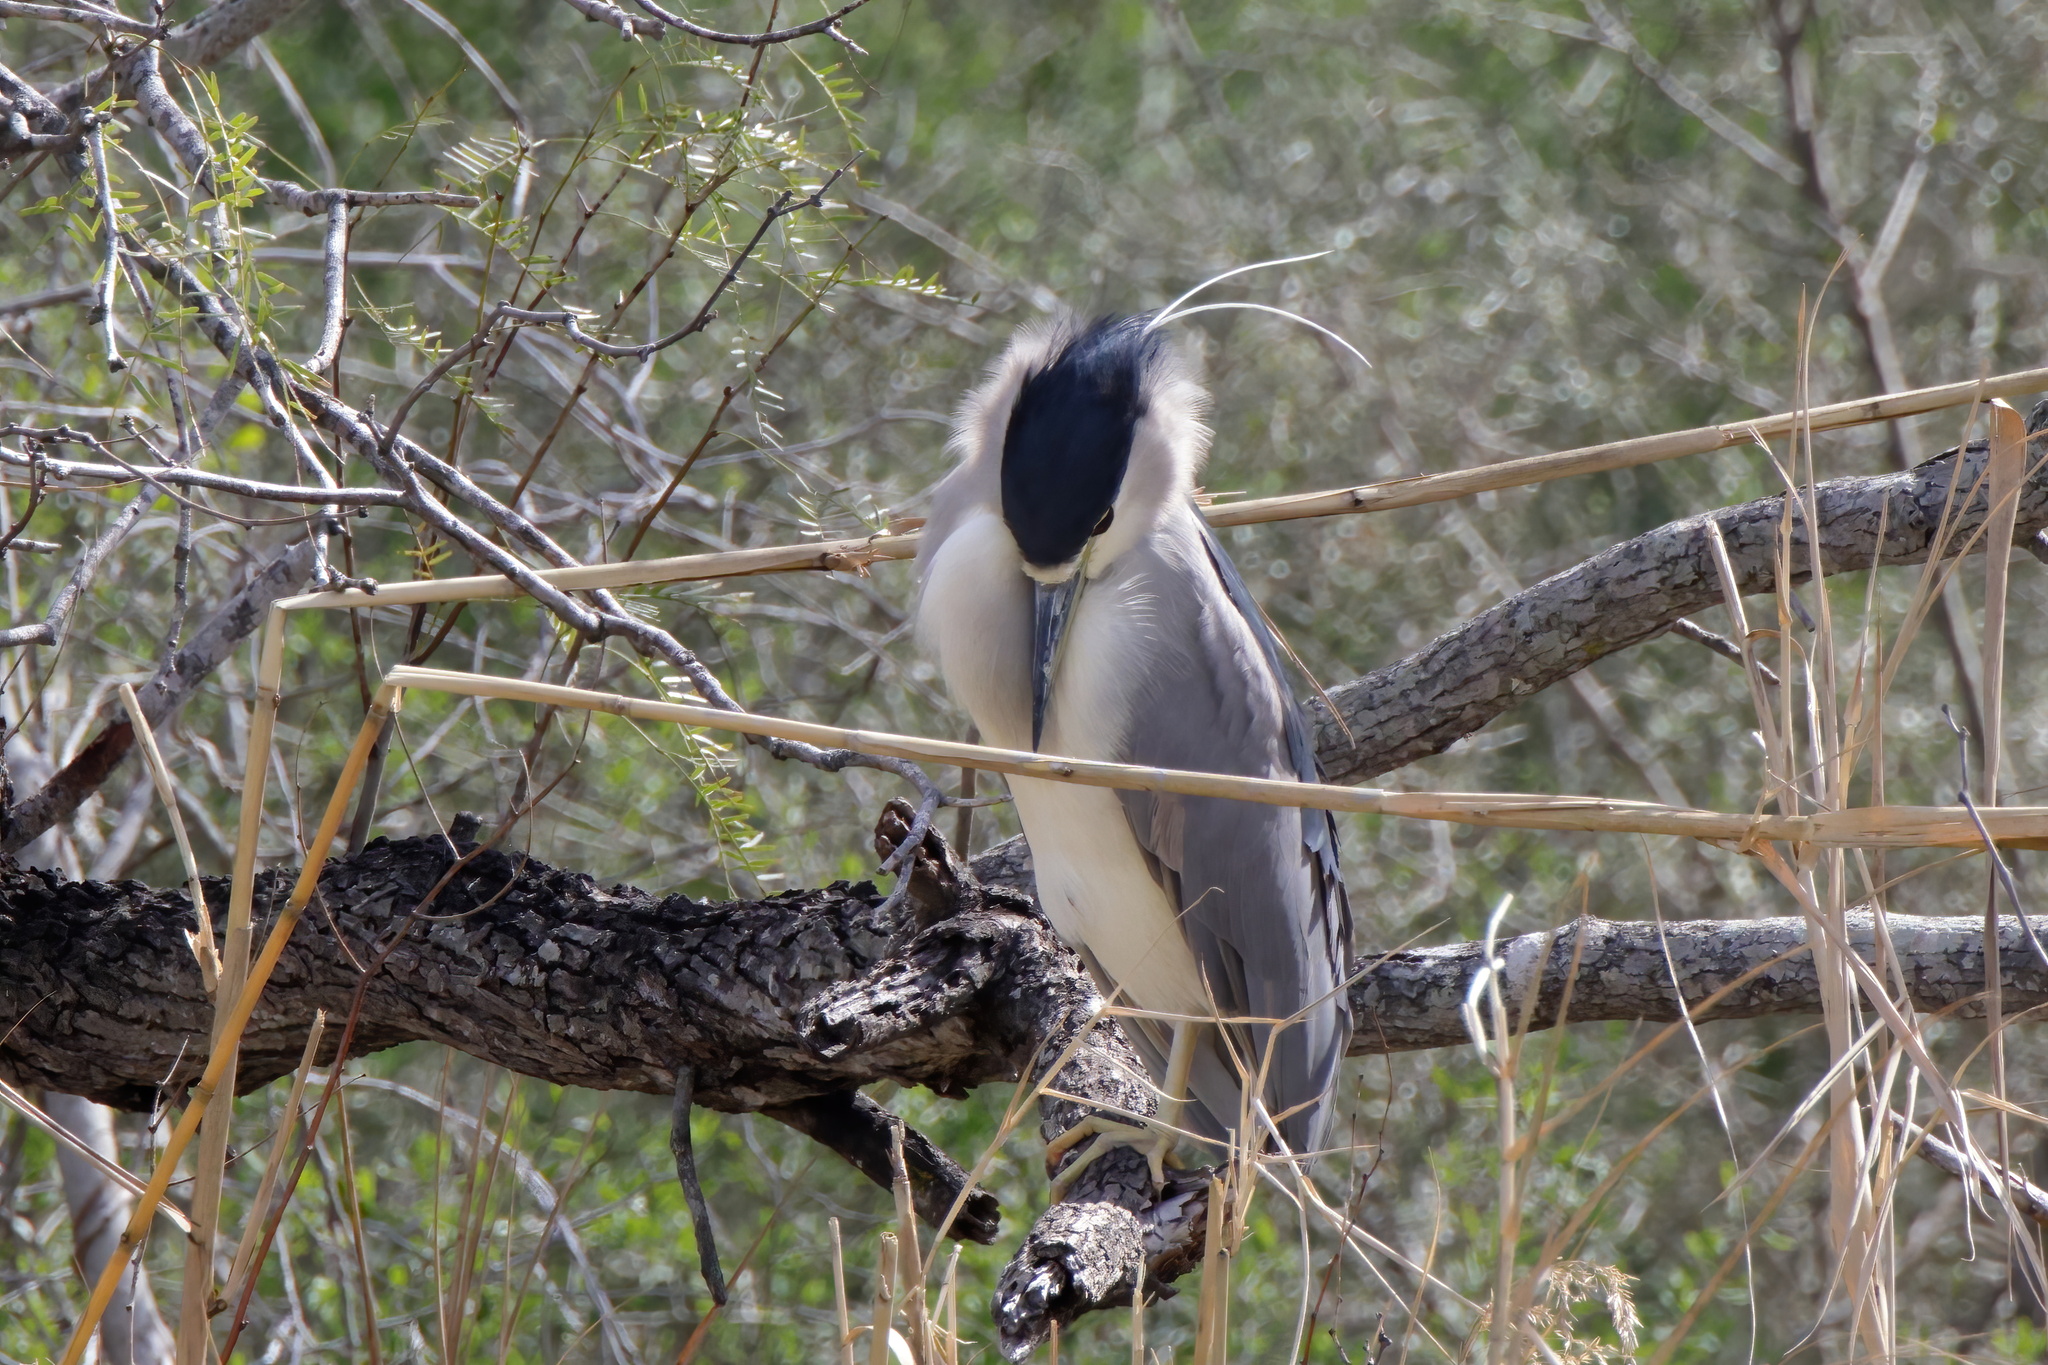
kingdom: Animalia
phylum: Chordata
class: Aves
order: Pelecaniformes
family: Ardeidae
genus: Nycticorax
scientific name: Nycticorax nycticorax
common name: Black-crowned night heron
